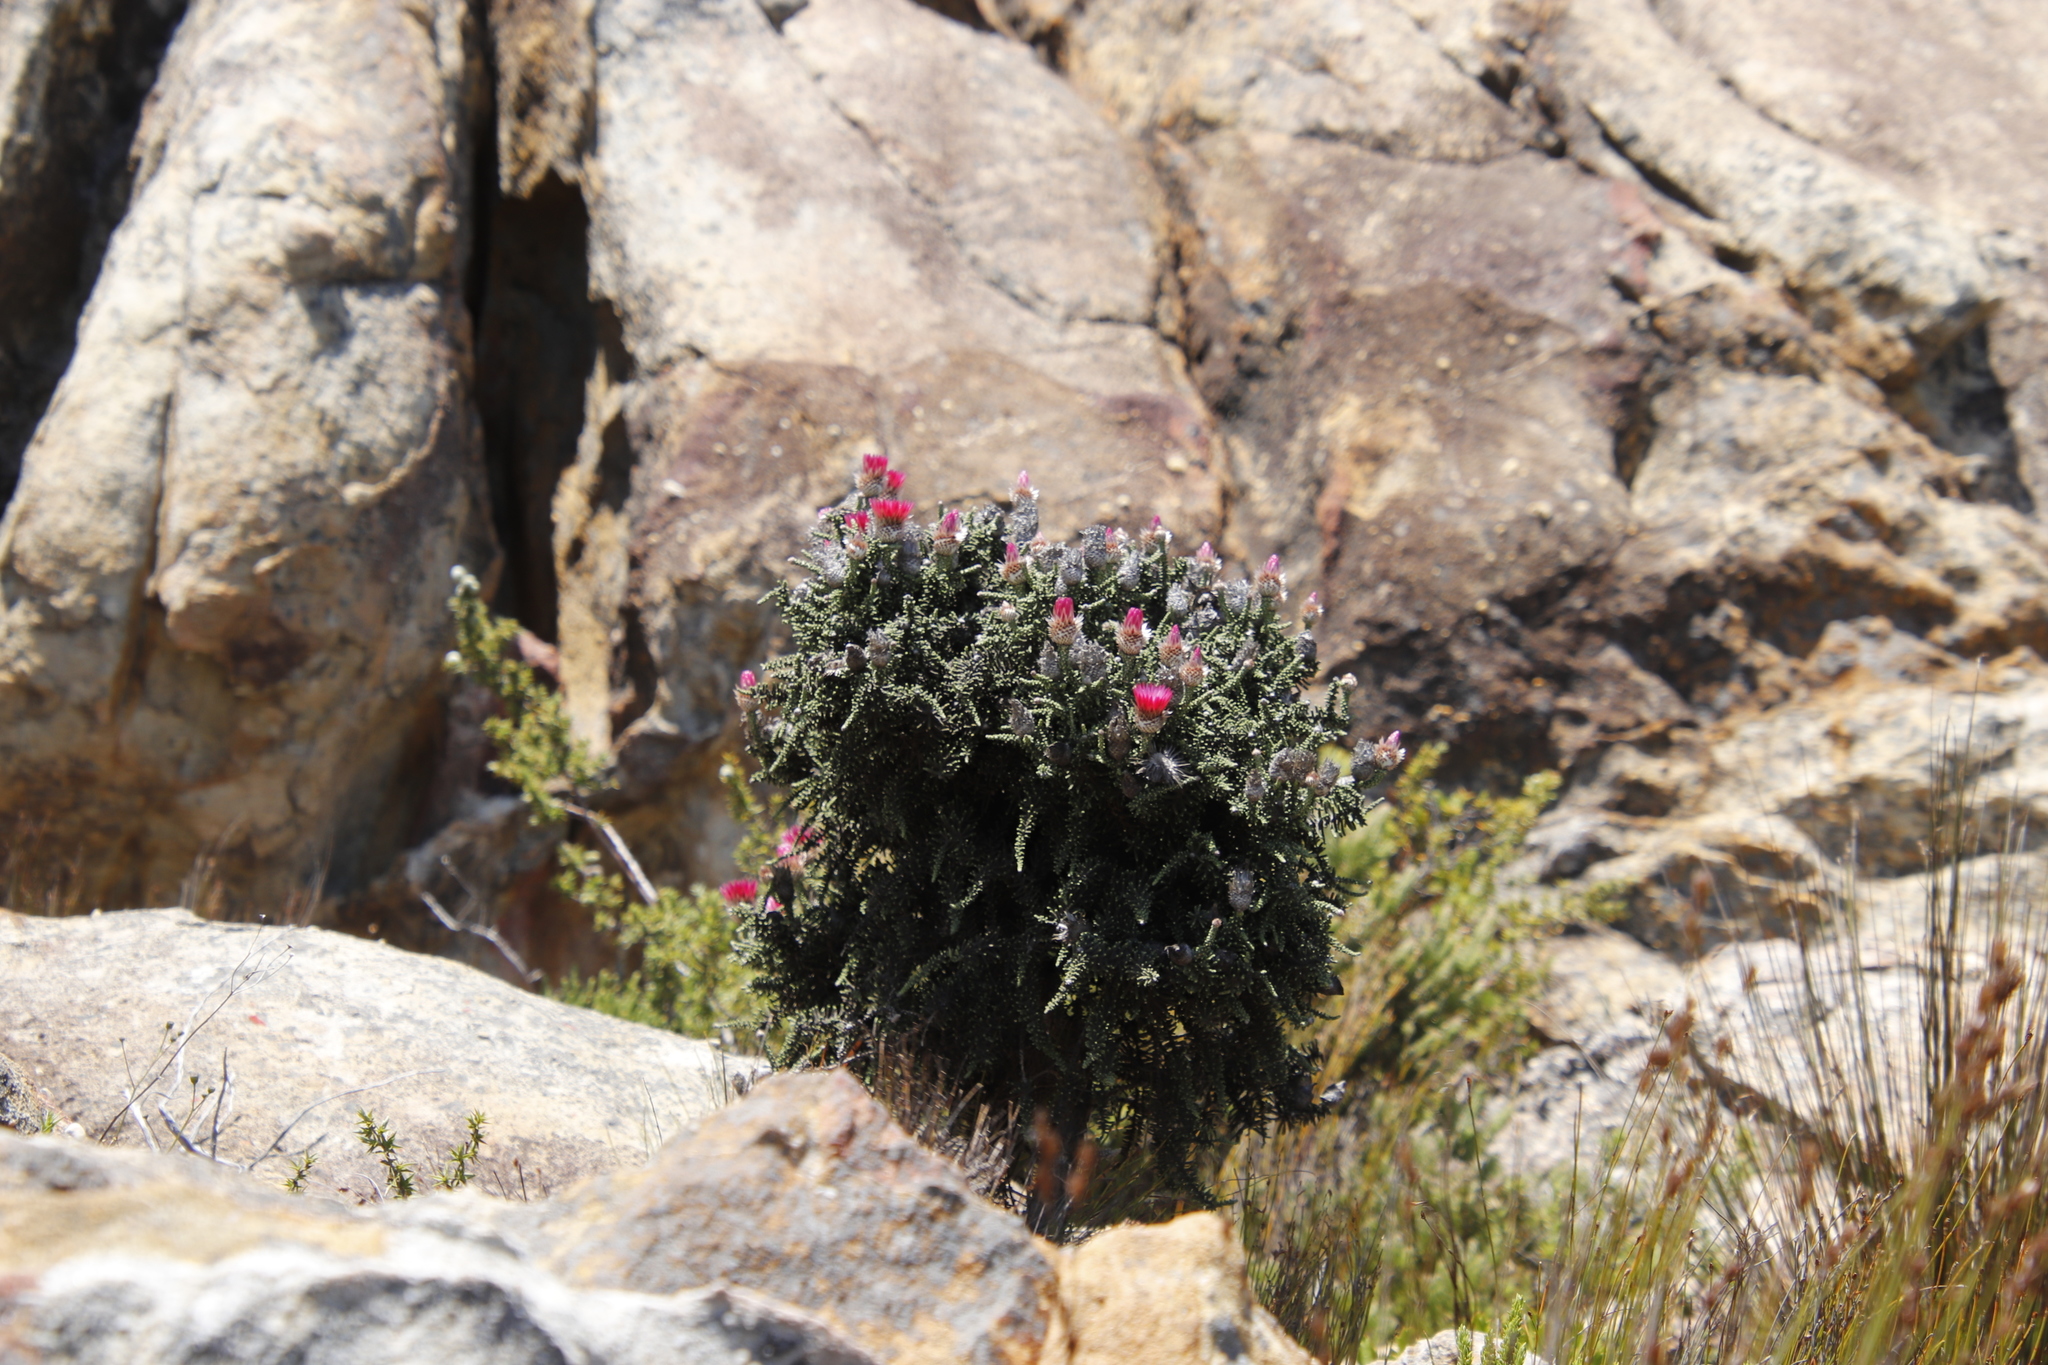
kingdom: Plantae
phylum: Tracheophyta
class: Magnoliopsida
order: Asterales
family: Asteraceae
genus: Phaenocoma
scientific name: Phaenocoma prolifera
